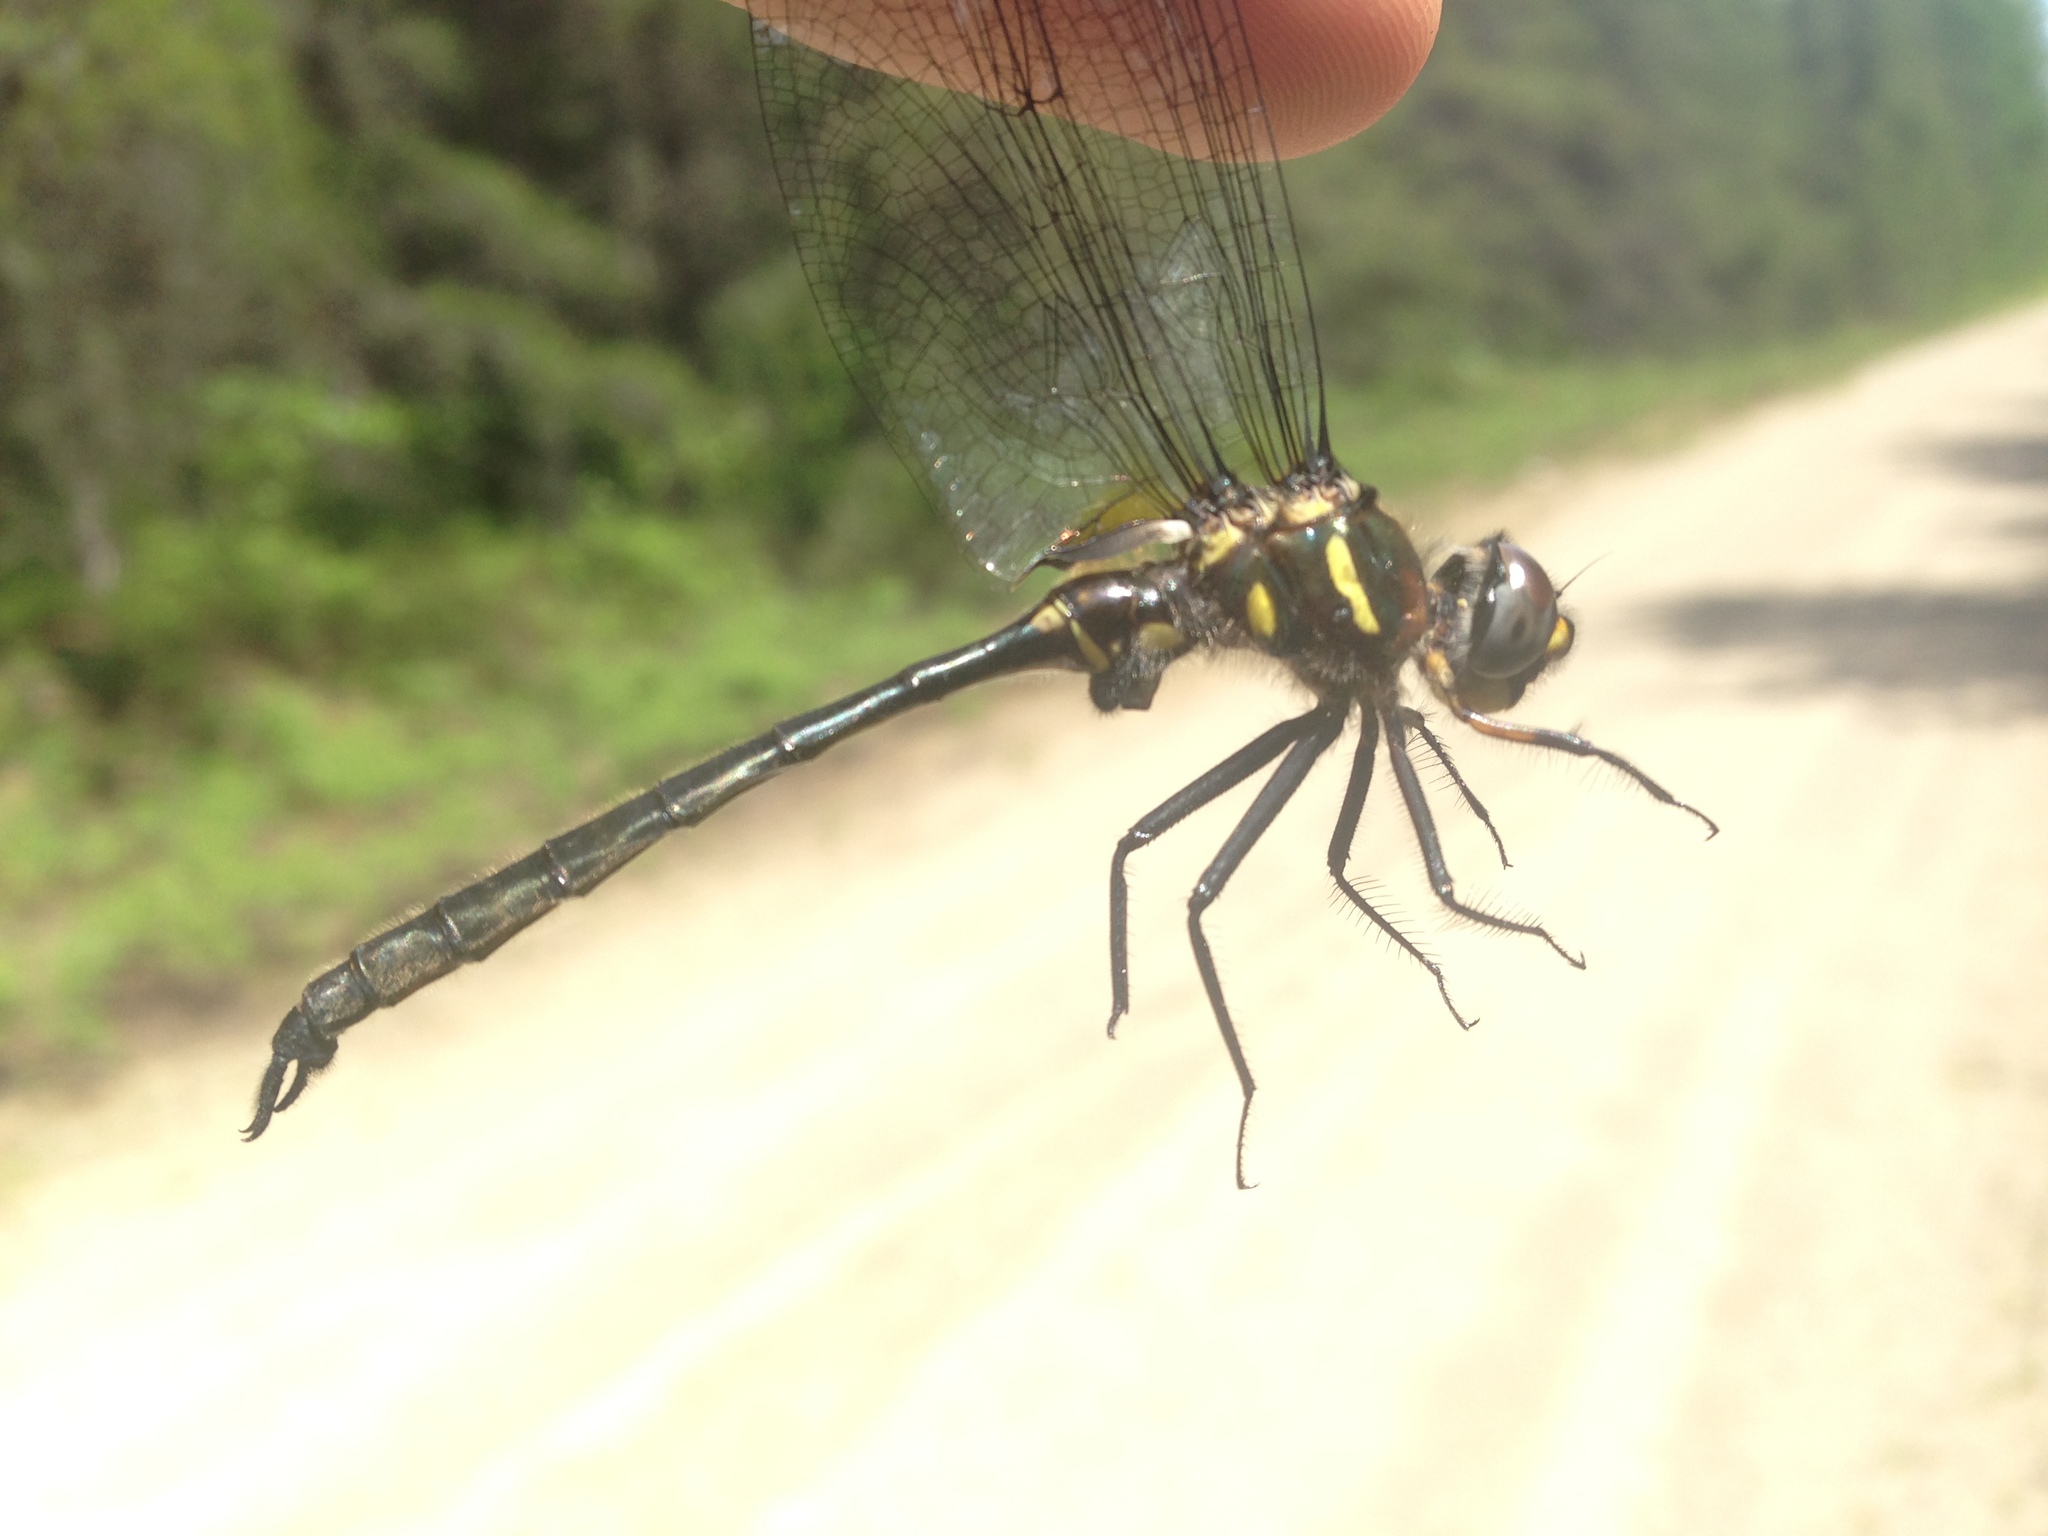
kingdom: Animalia
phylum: Arthropoda
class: Insecta
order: Odonata
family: Corduliidae
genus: Somatochlora
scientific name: Somatochlora elongata
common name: Ski-tipped emerald
